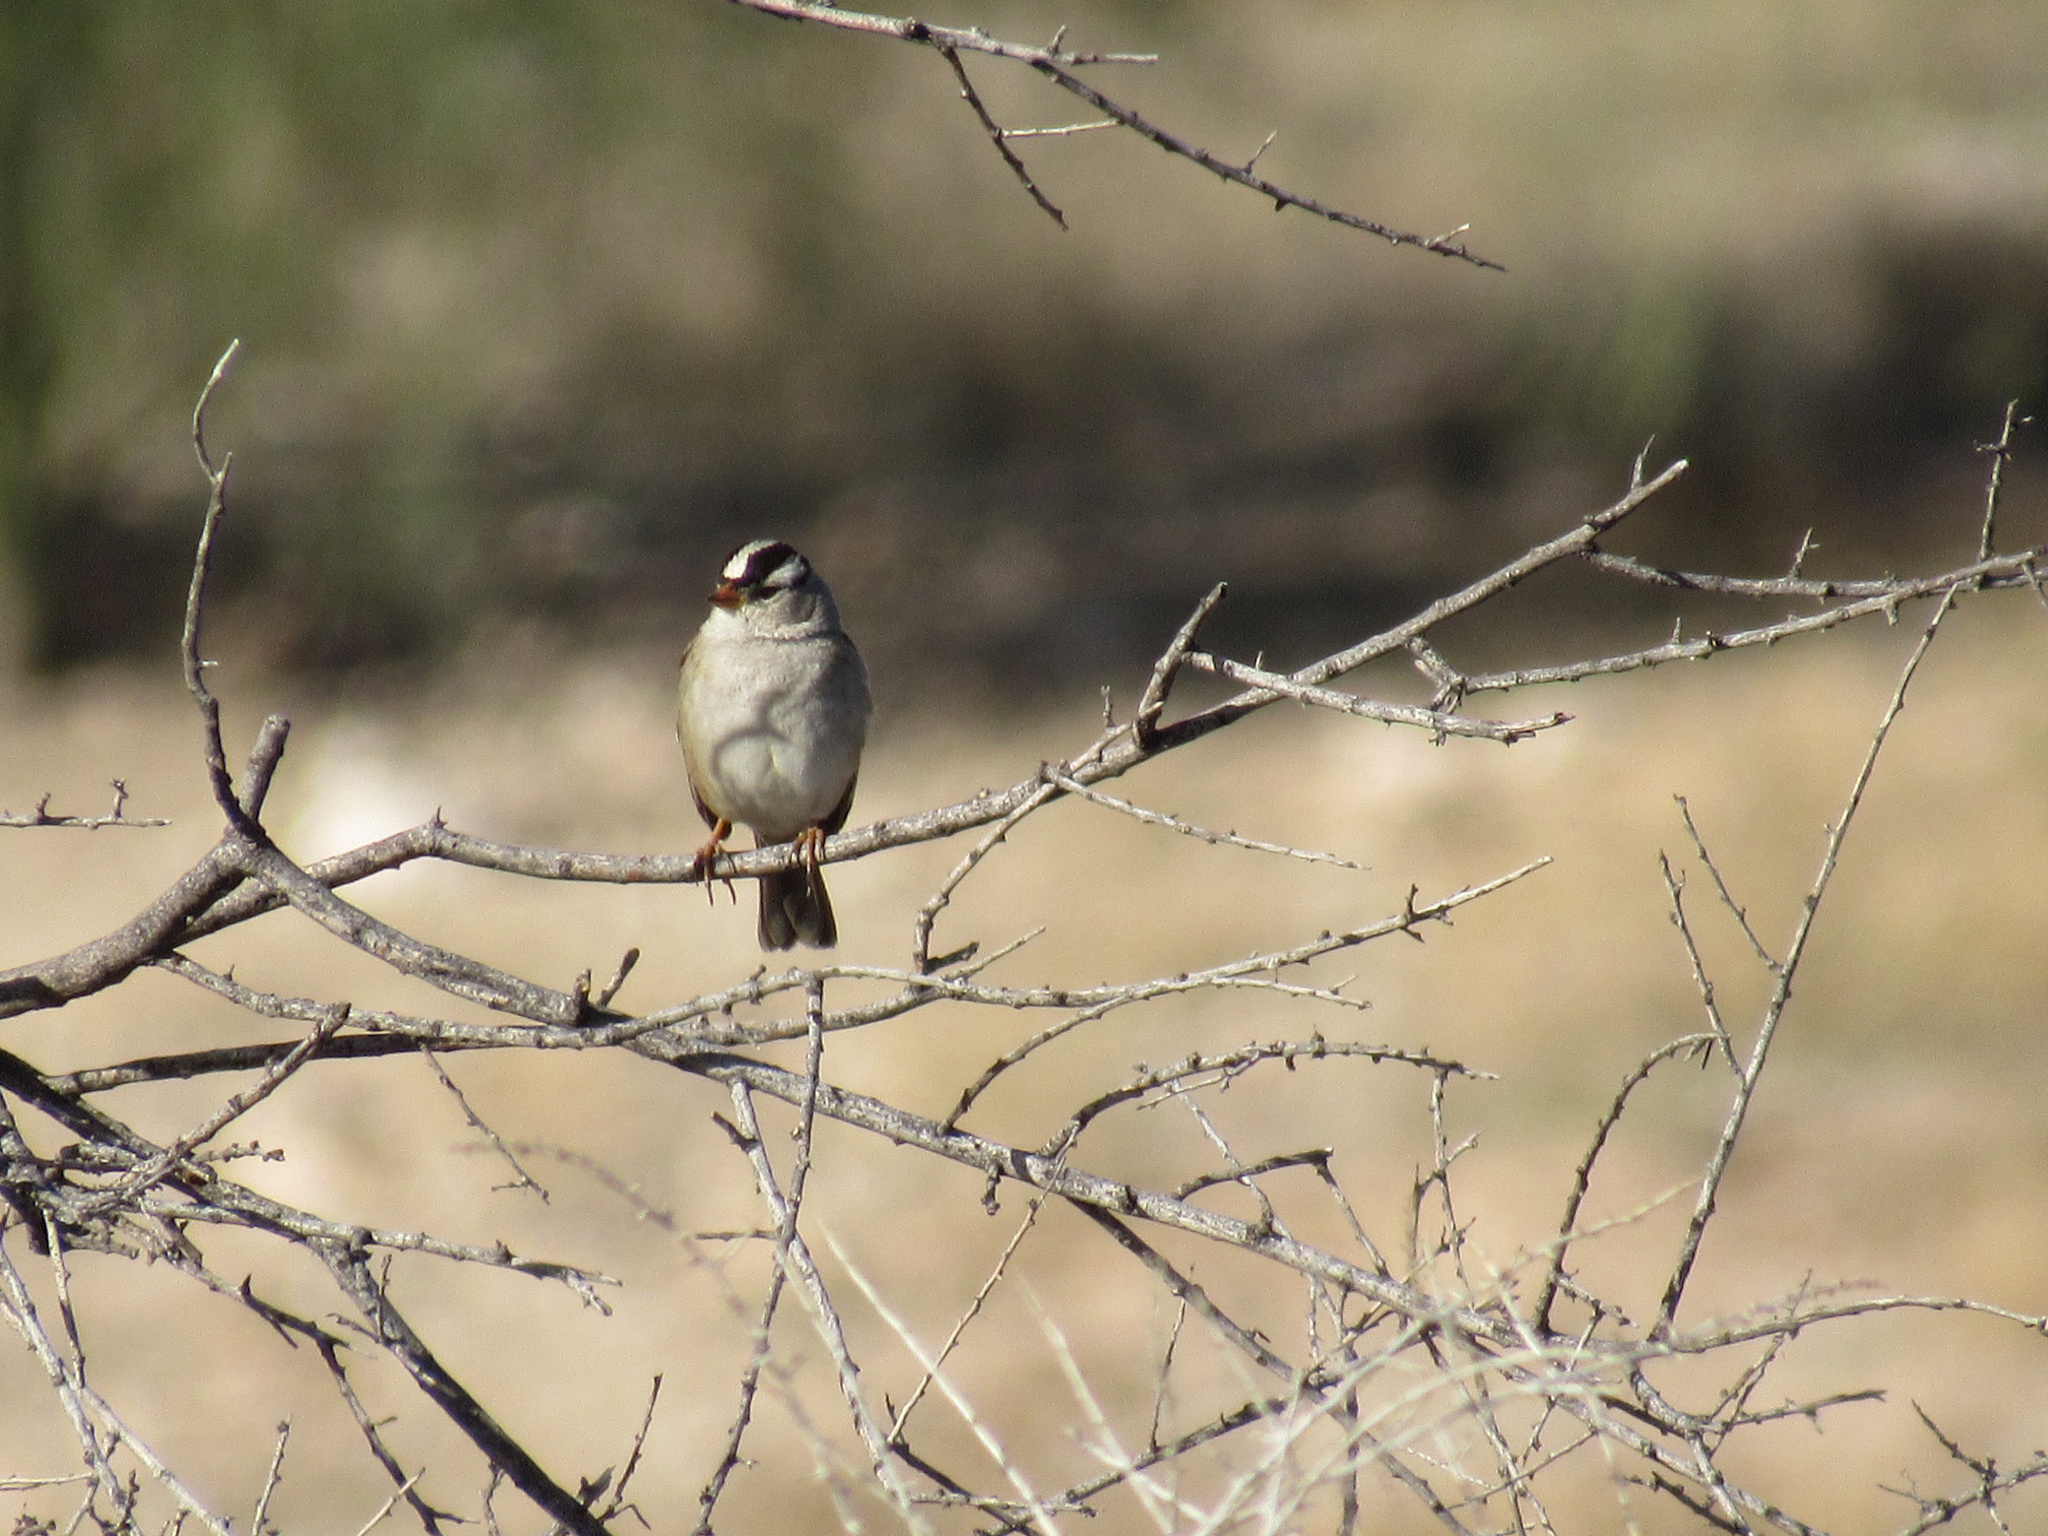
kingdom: Animalia
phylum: Chordata
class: Aves
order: Passeriformes
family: Passerellidae
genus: Zonotrichia
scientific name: Zonotrichia leucophrys
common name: White-crowned sparrow
